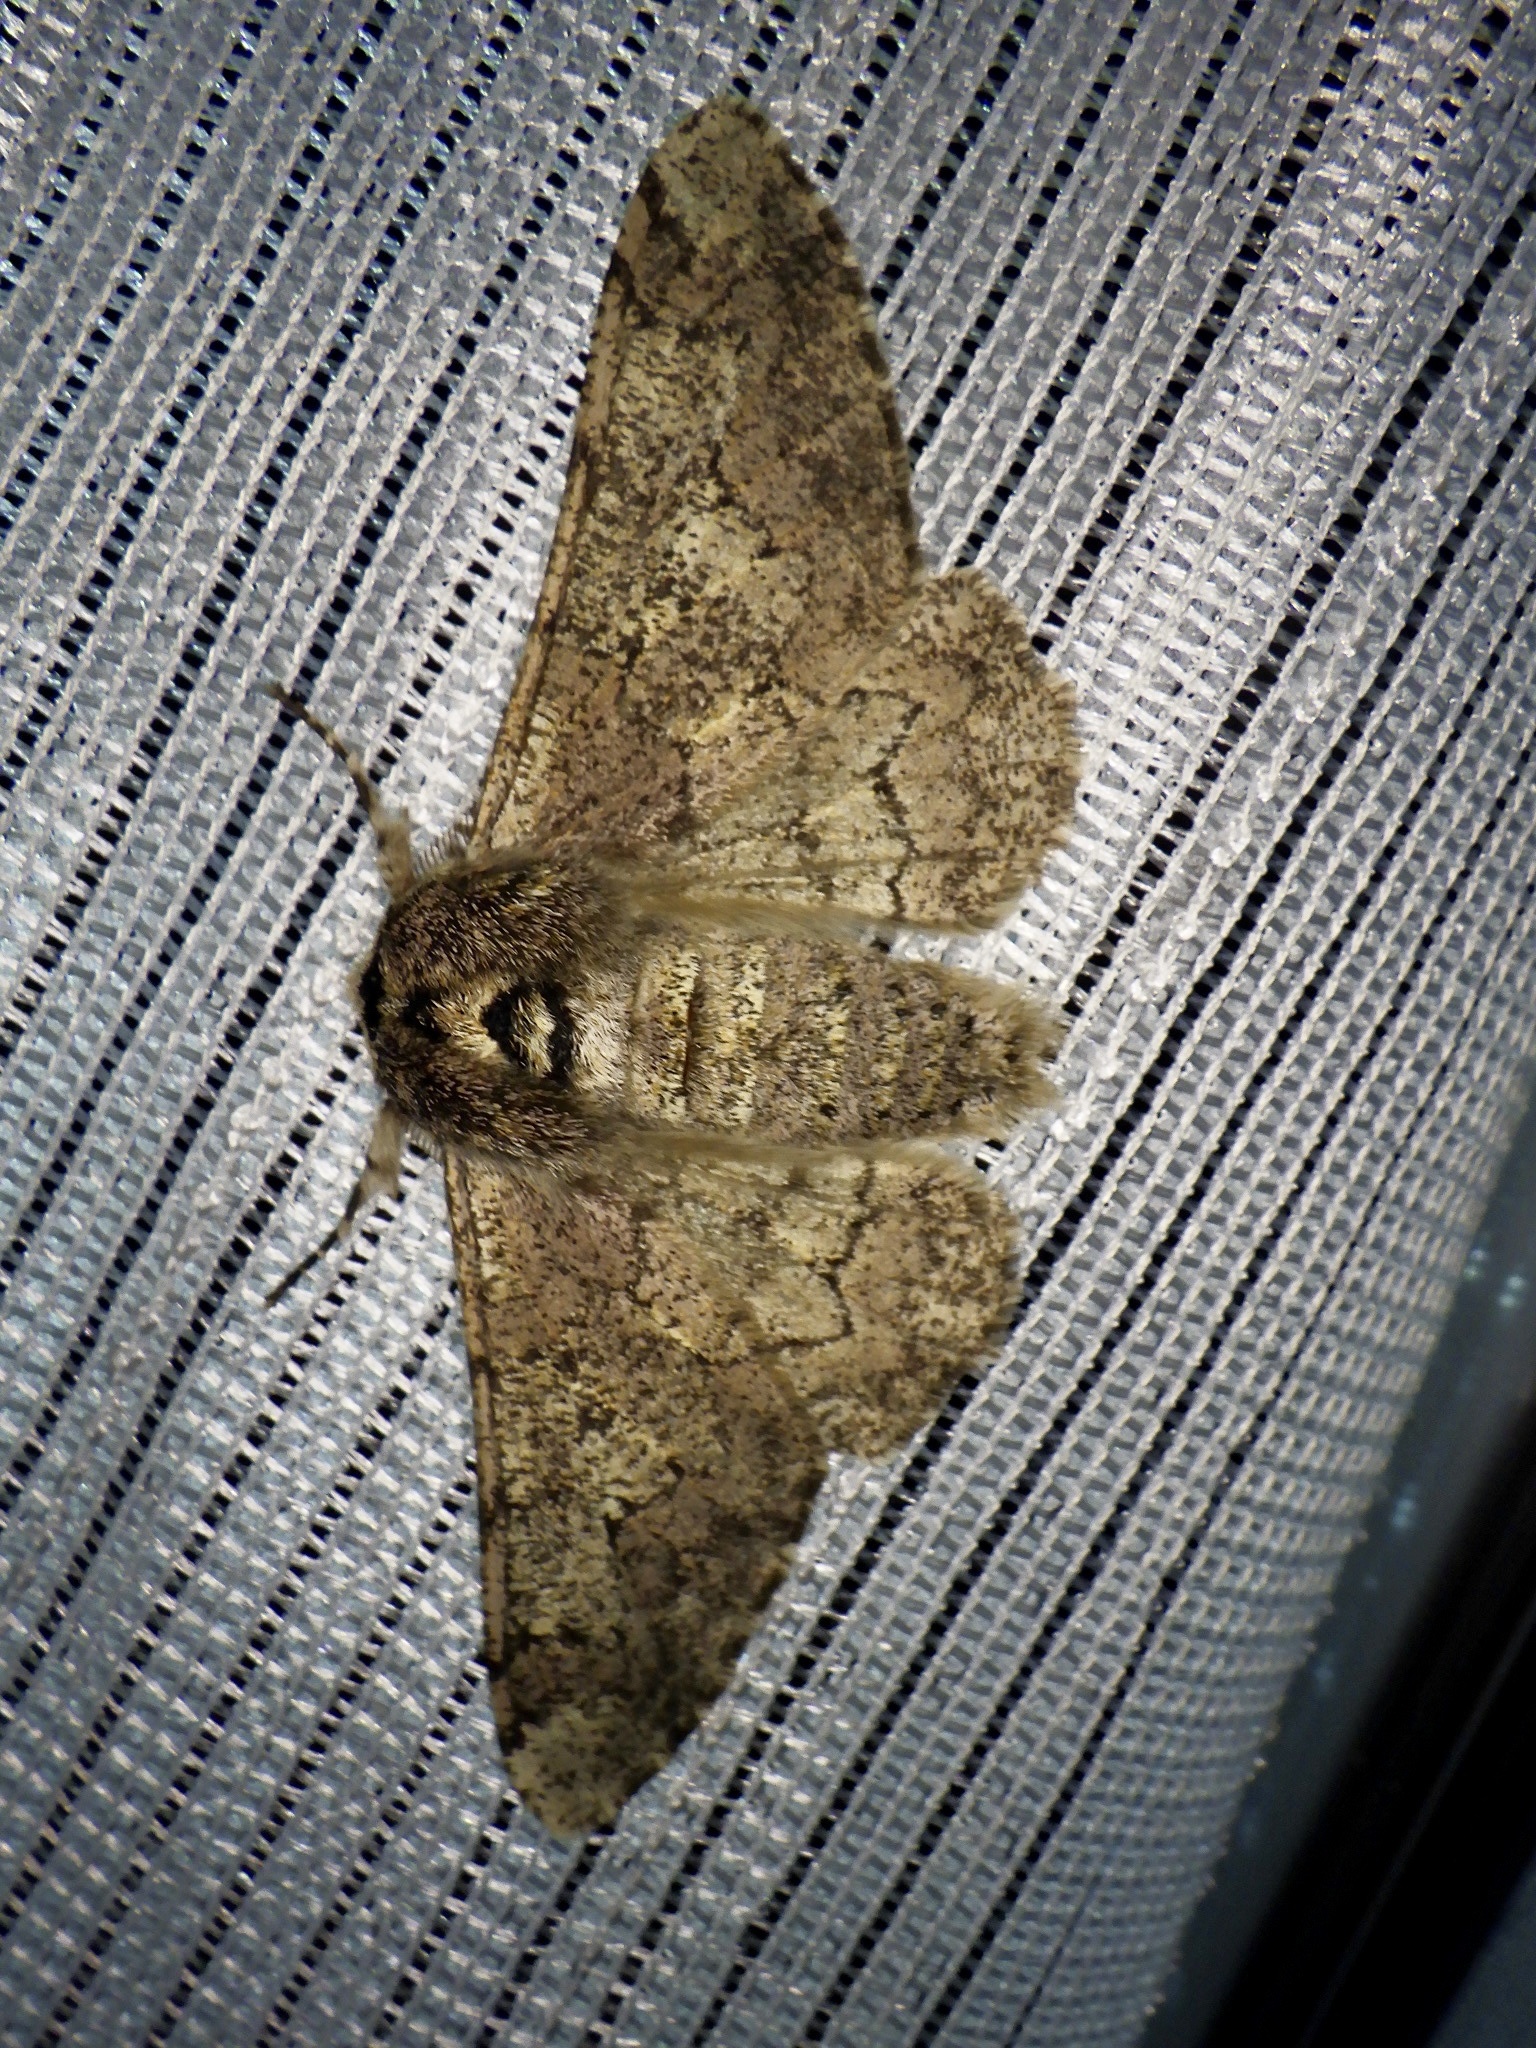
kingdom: Animalia
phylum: Arthropoda
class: Insecta
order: Lepidoptera
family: Geometridae
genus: Biston
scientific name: Biston robustum
